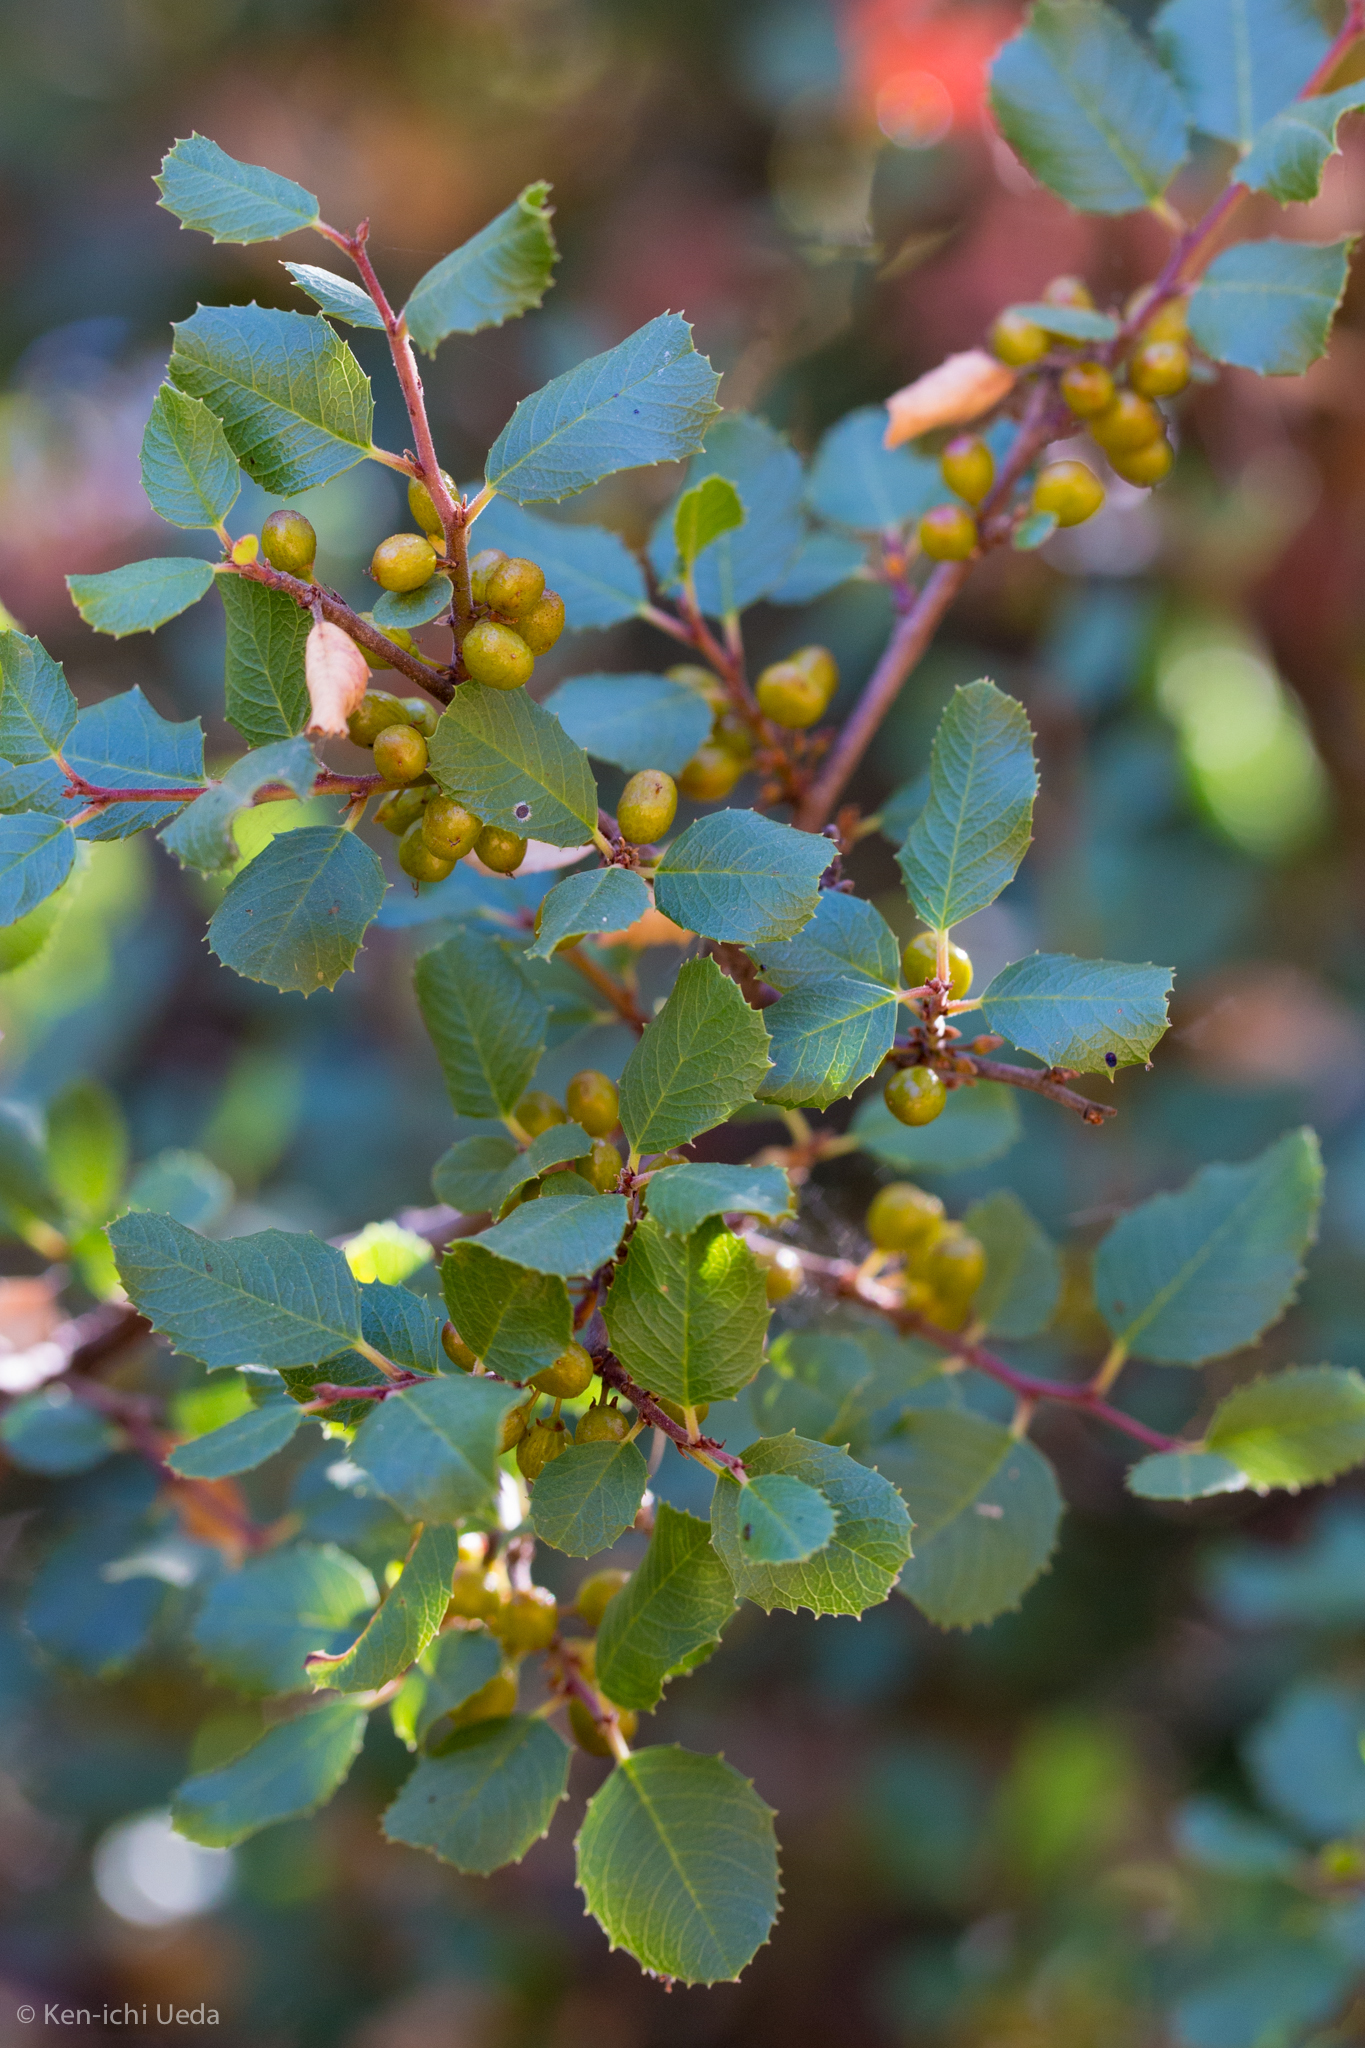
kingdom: Plantae
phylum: Tracheophyta
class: Magnoliopsida
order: Rosales
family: Rhamnaceae
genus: Endotropis
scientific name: Endotropis crocea
